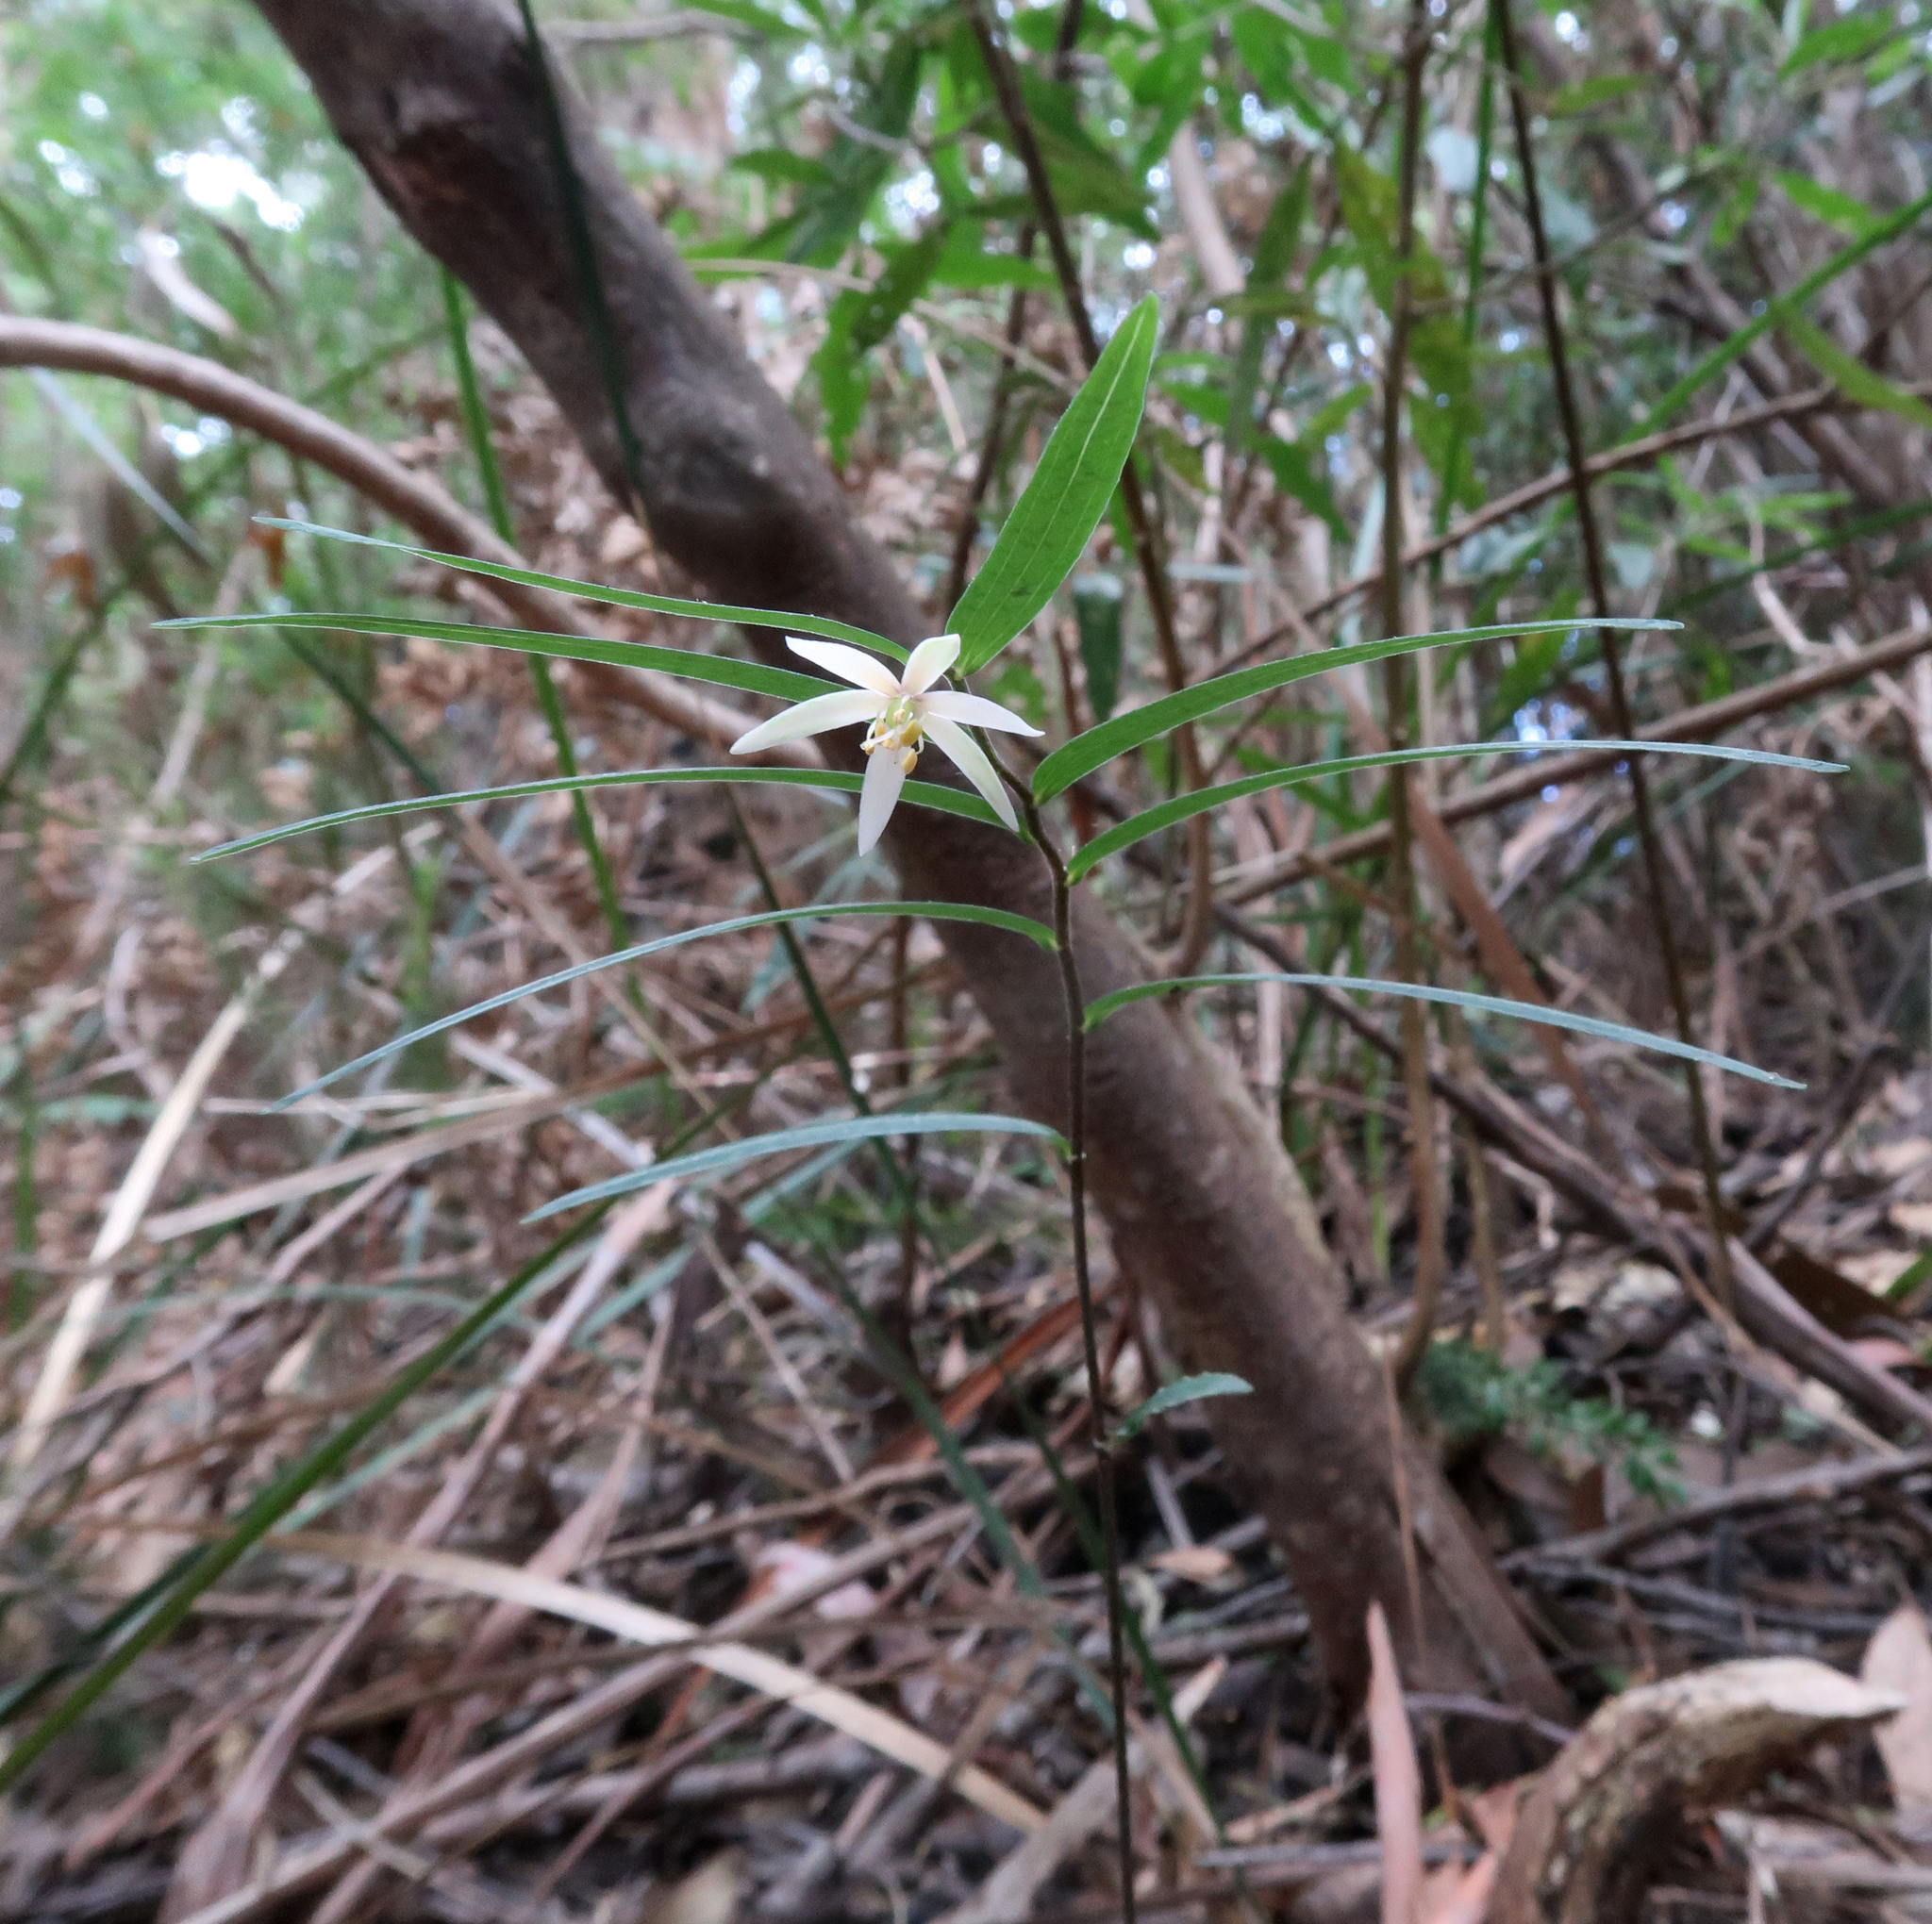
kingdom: Plantae
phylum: Tracheophyta
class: Liliopsida
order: Liliales
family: Alstroemeriaceae
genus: Drymophila
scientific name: Drymophila cyanocarpa
